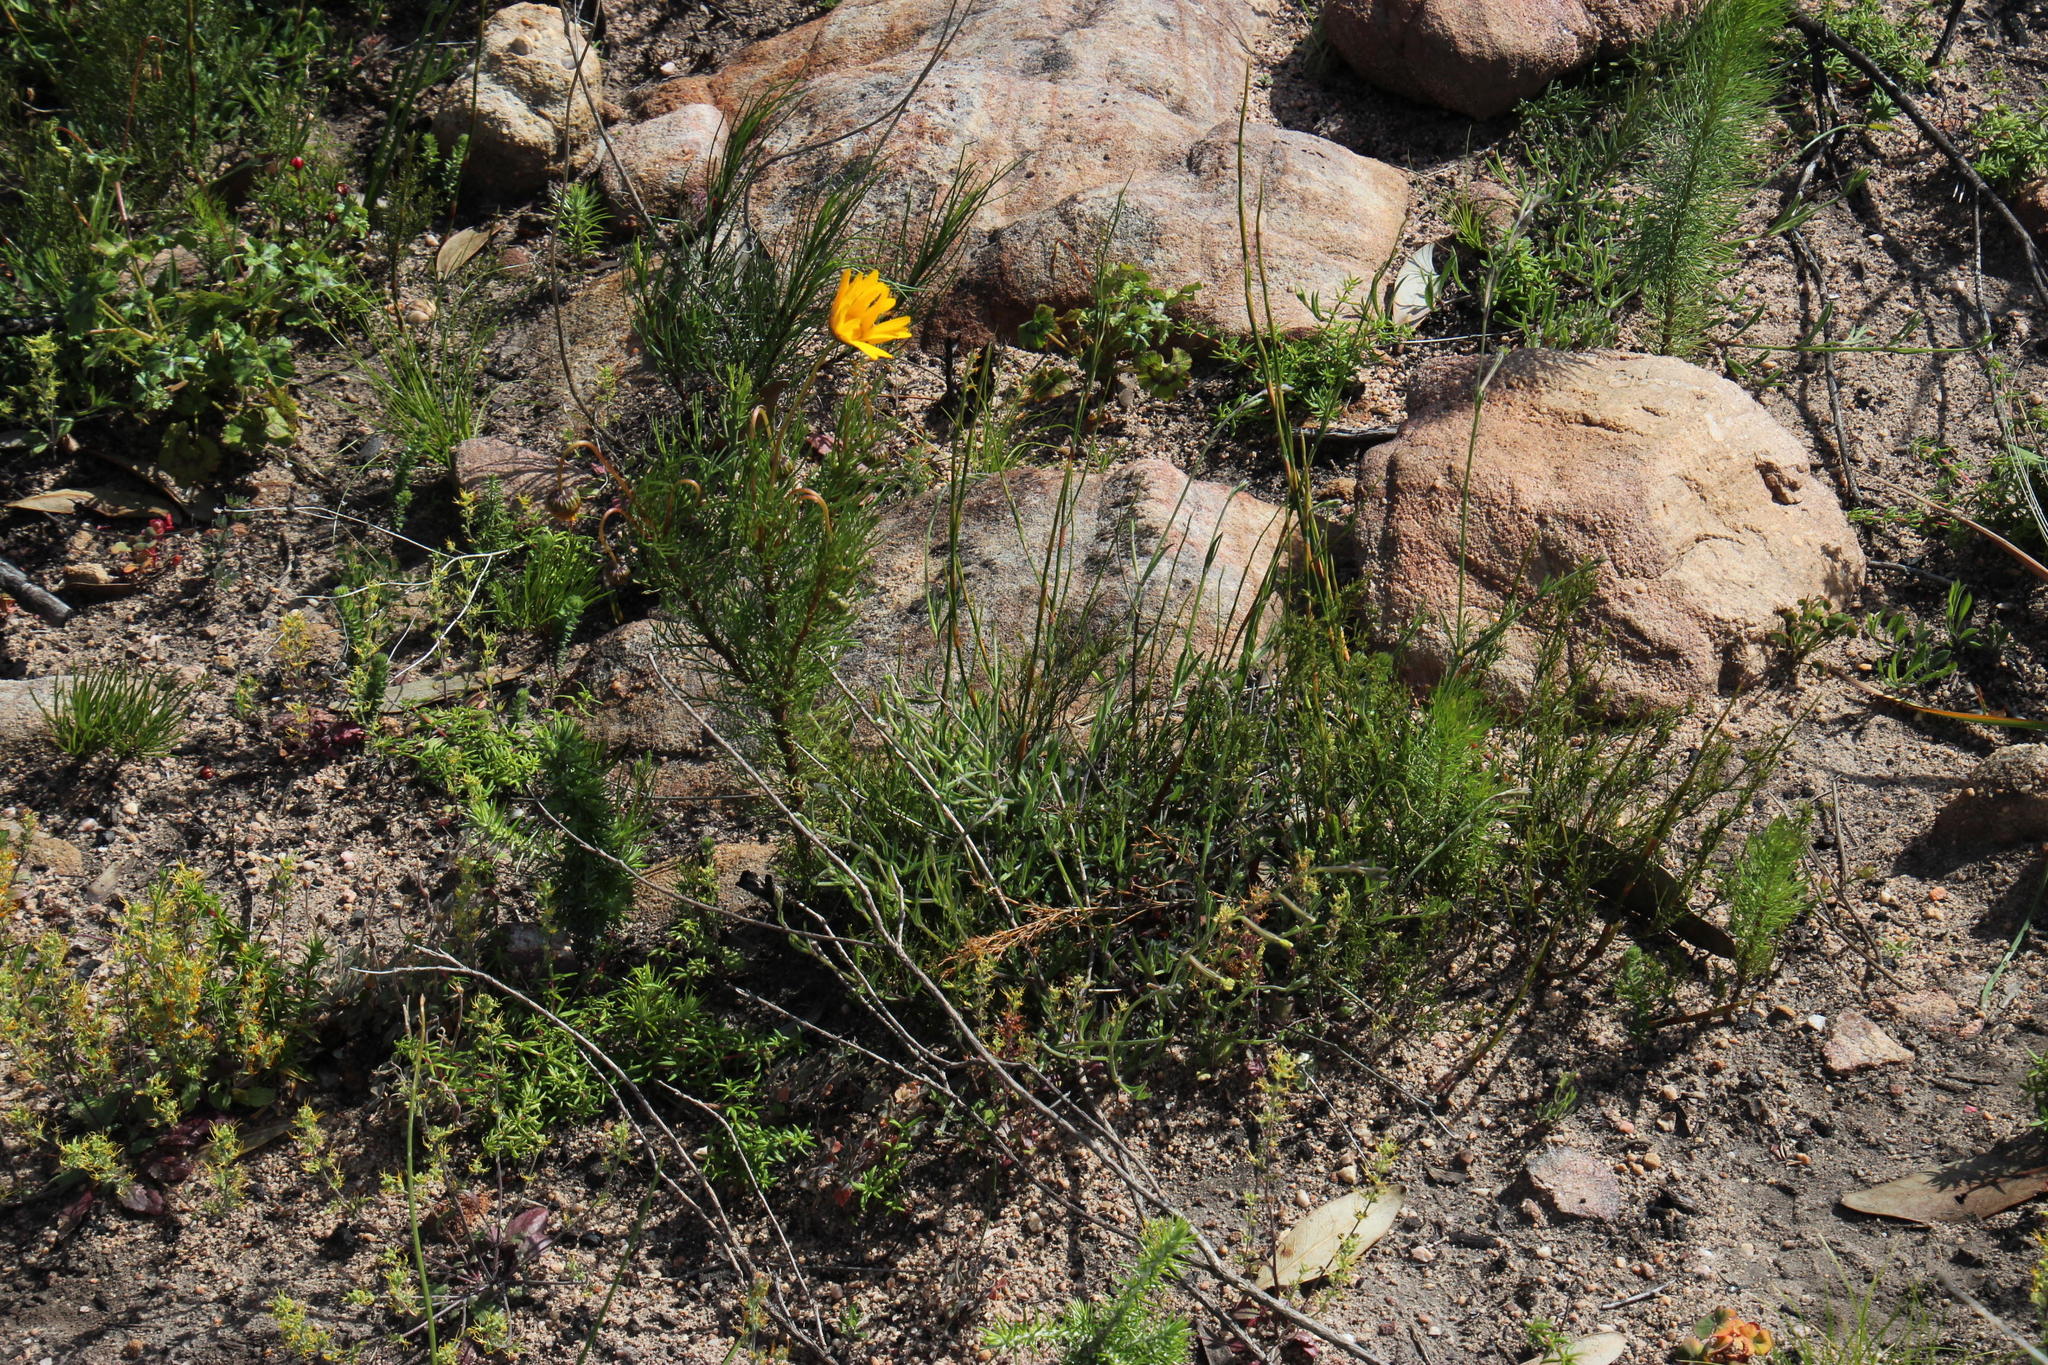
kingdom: Plantae
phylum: Tracheophyta
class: Magnoliopsida
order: Caryophyllales
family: Caryophyllaceae
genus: Silene
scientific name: Silene burchellii
